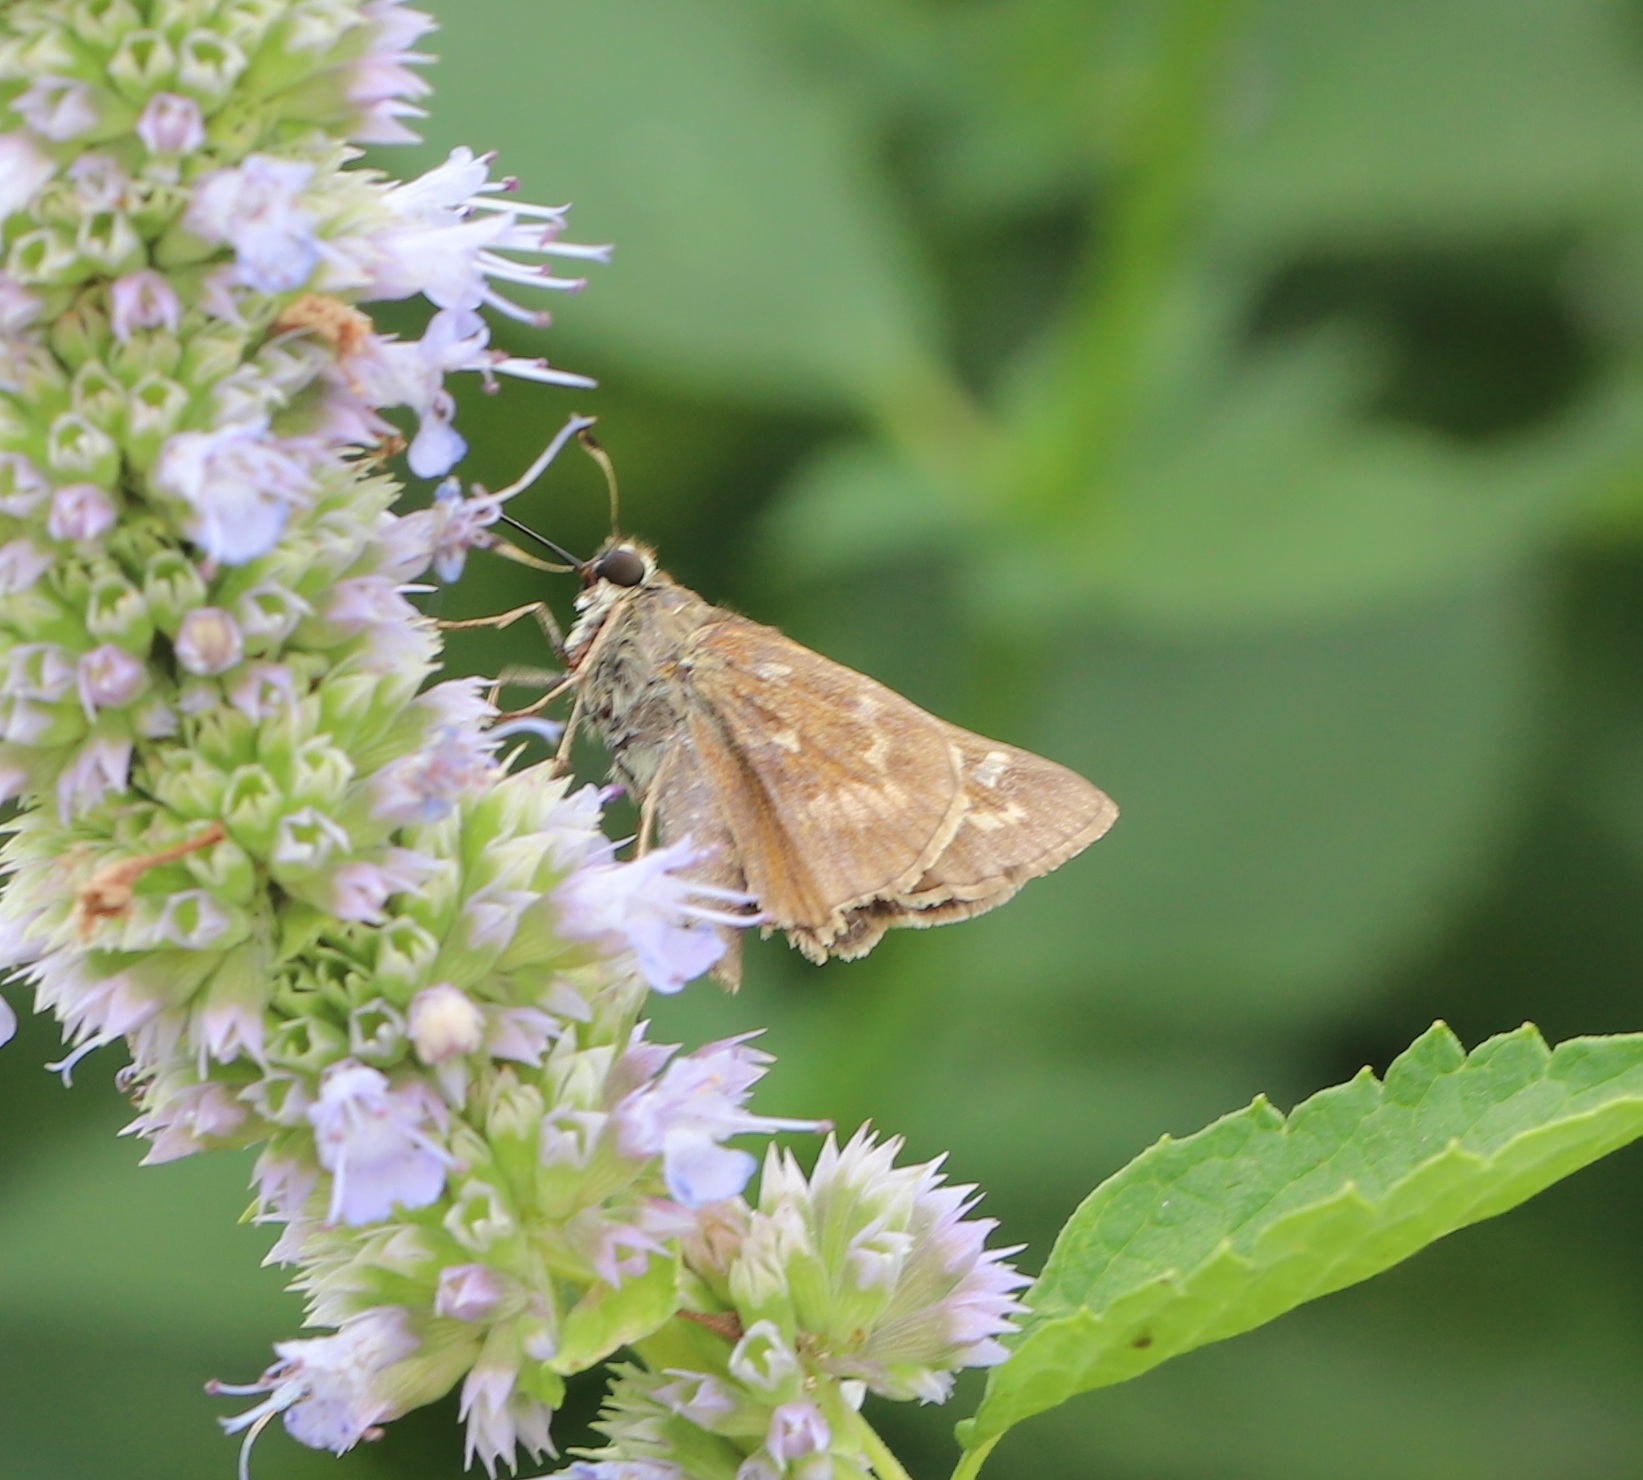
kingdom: Animalia
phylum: Arthropoda
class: Insecta
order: Lepidoptera
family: Hesperiidae
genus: Atalopedes
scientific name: Atalopedes
